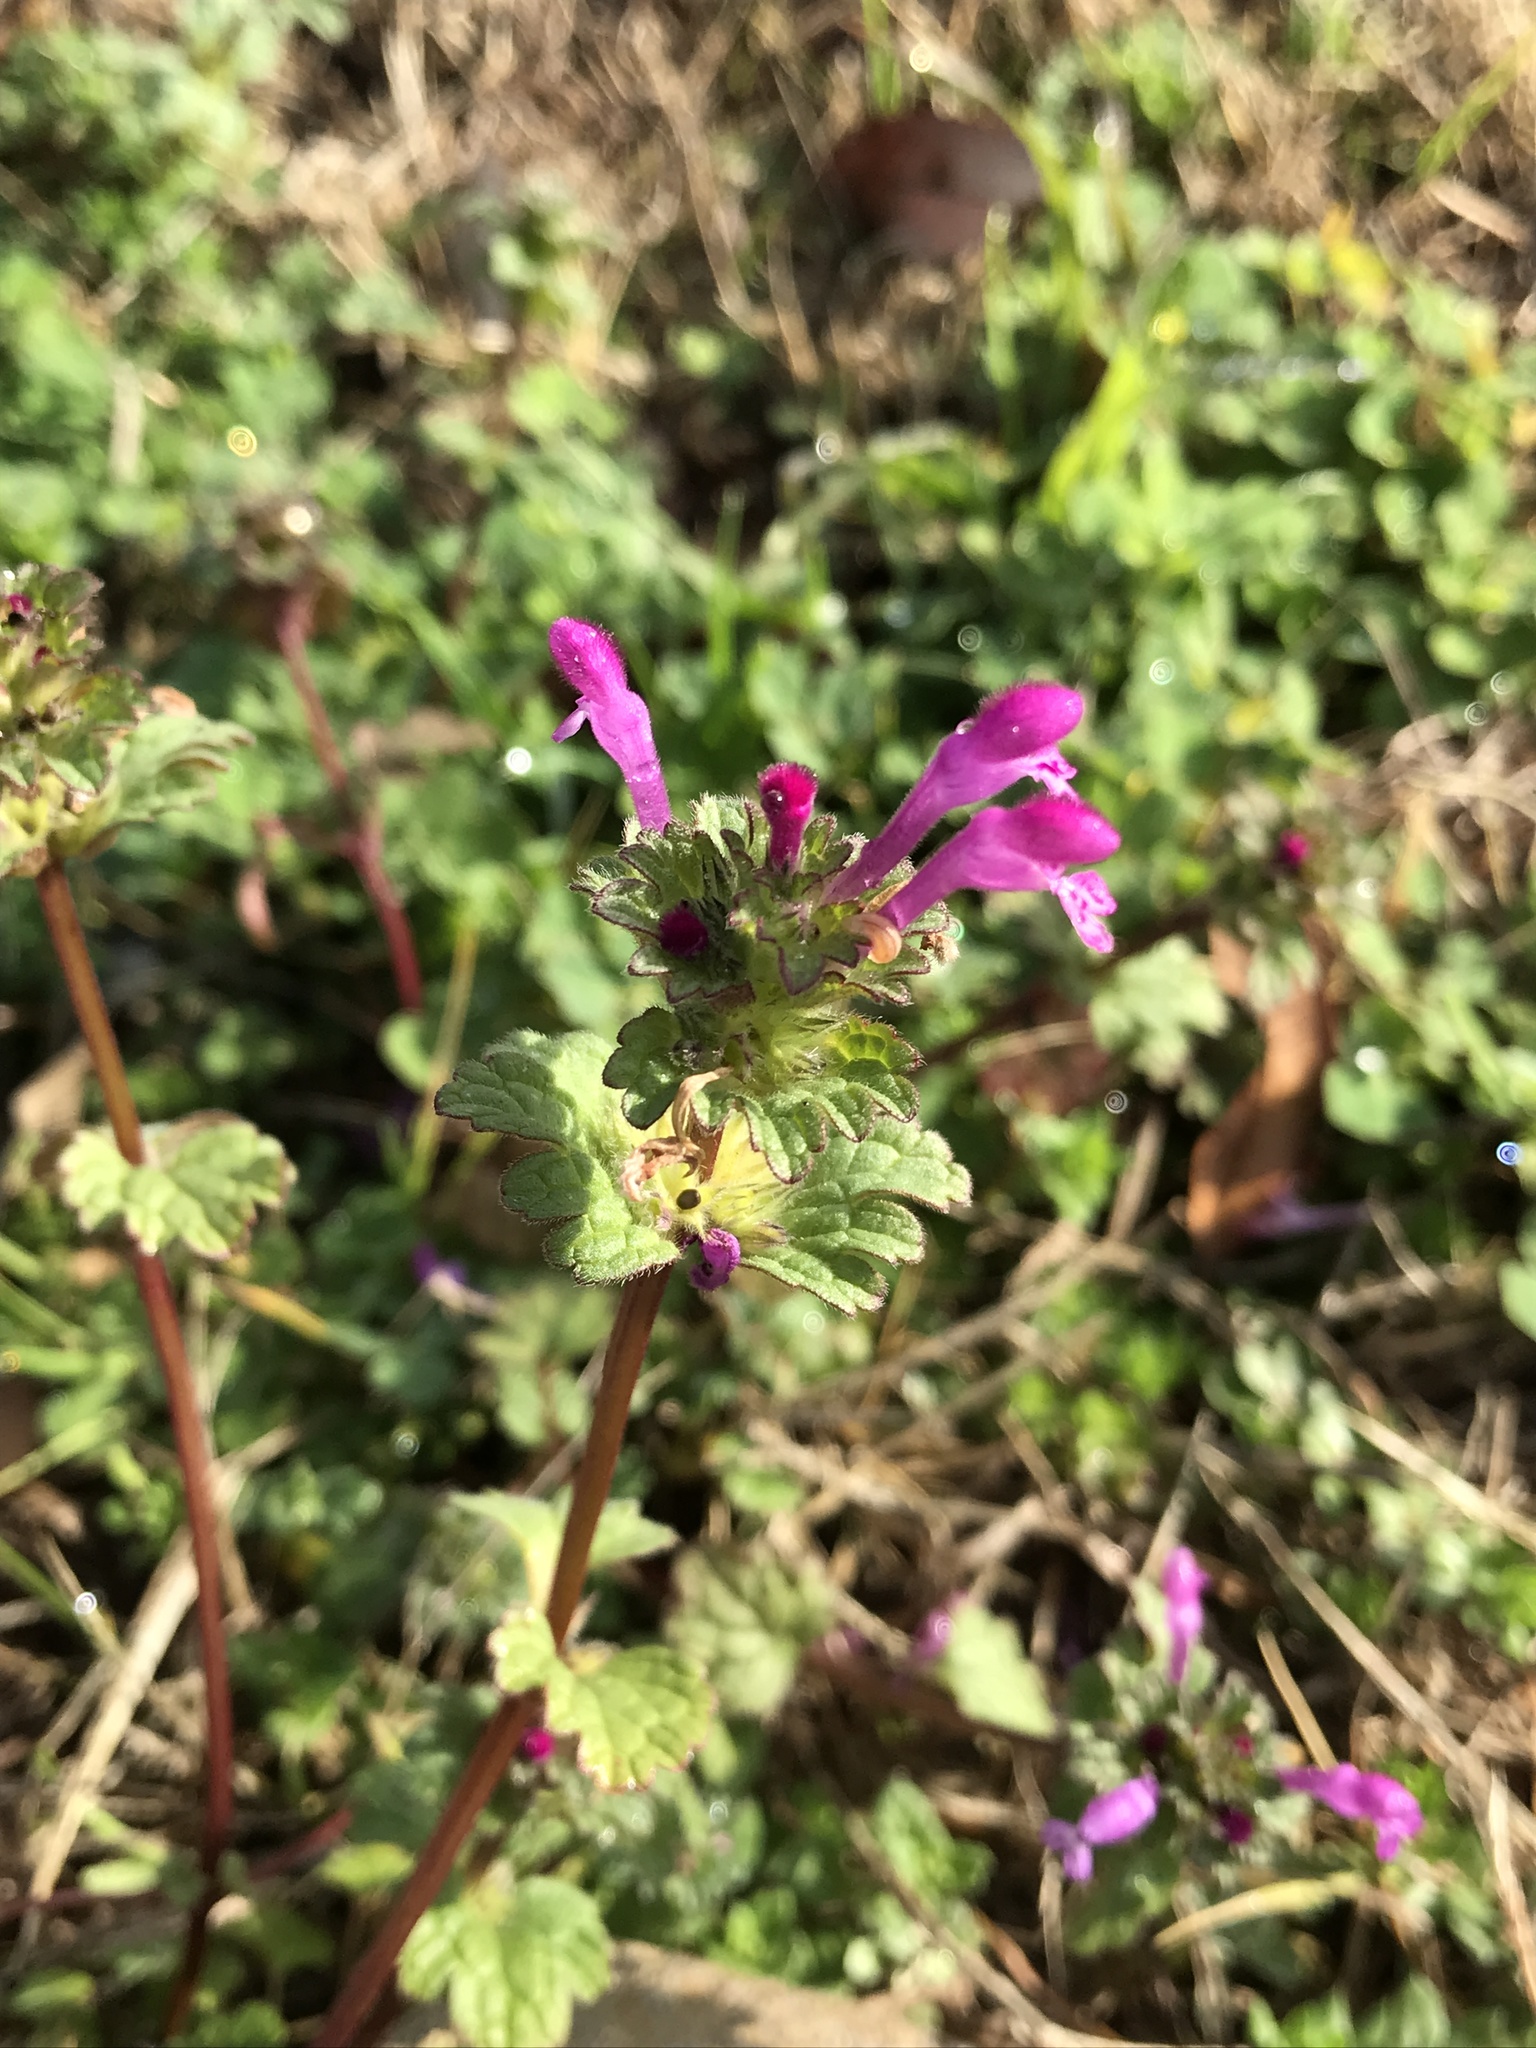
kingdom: Plantae
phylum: Tracheophyta
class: Magnoliopsida
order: Lamiales
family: Lamiaceae
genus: Lamium
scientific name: Lamium amplexicaule
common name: Henbit dead-nettle
